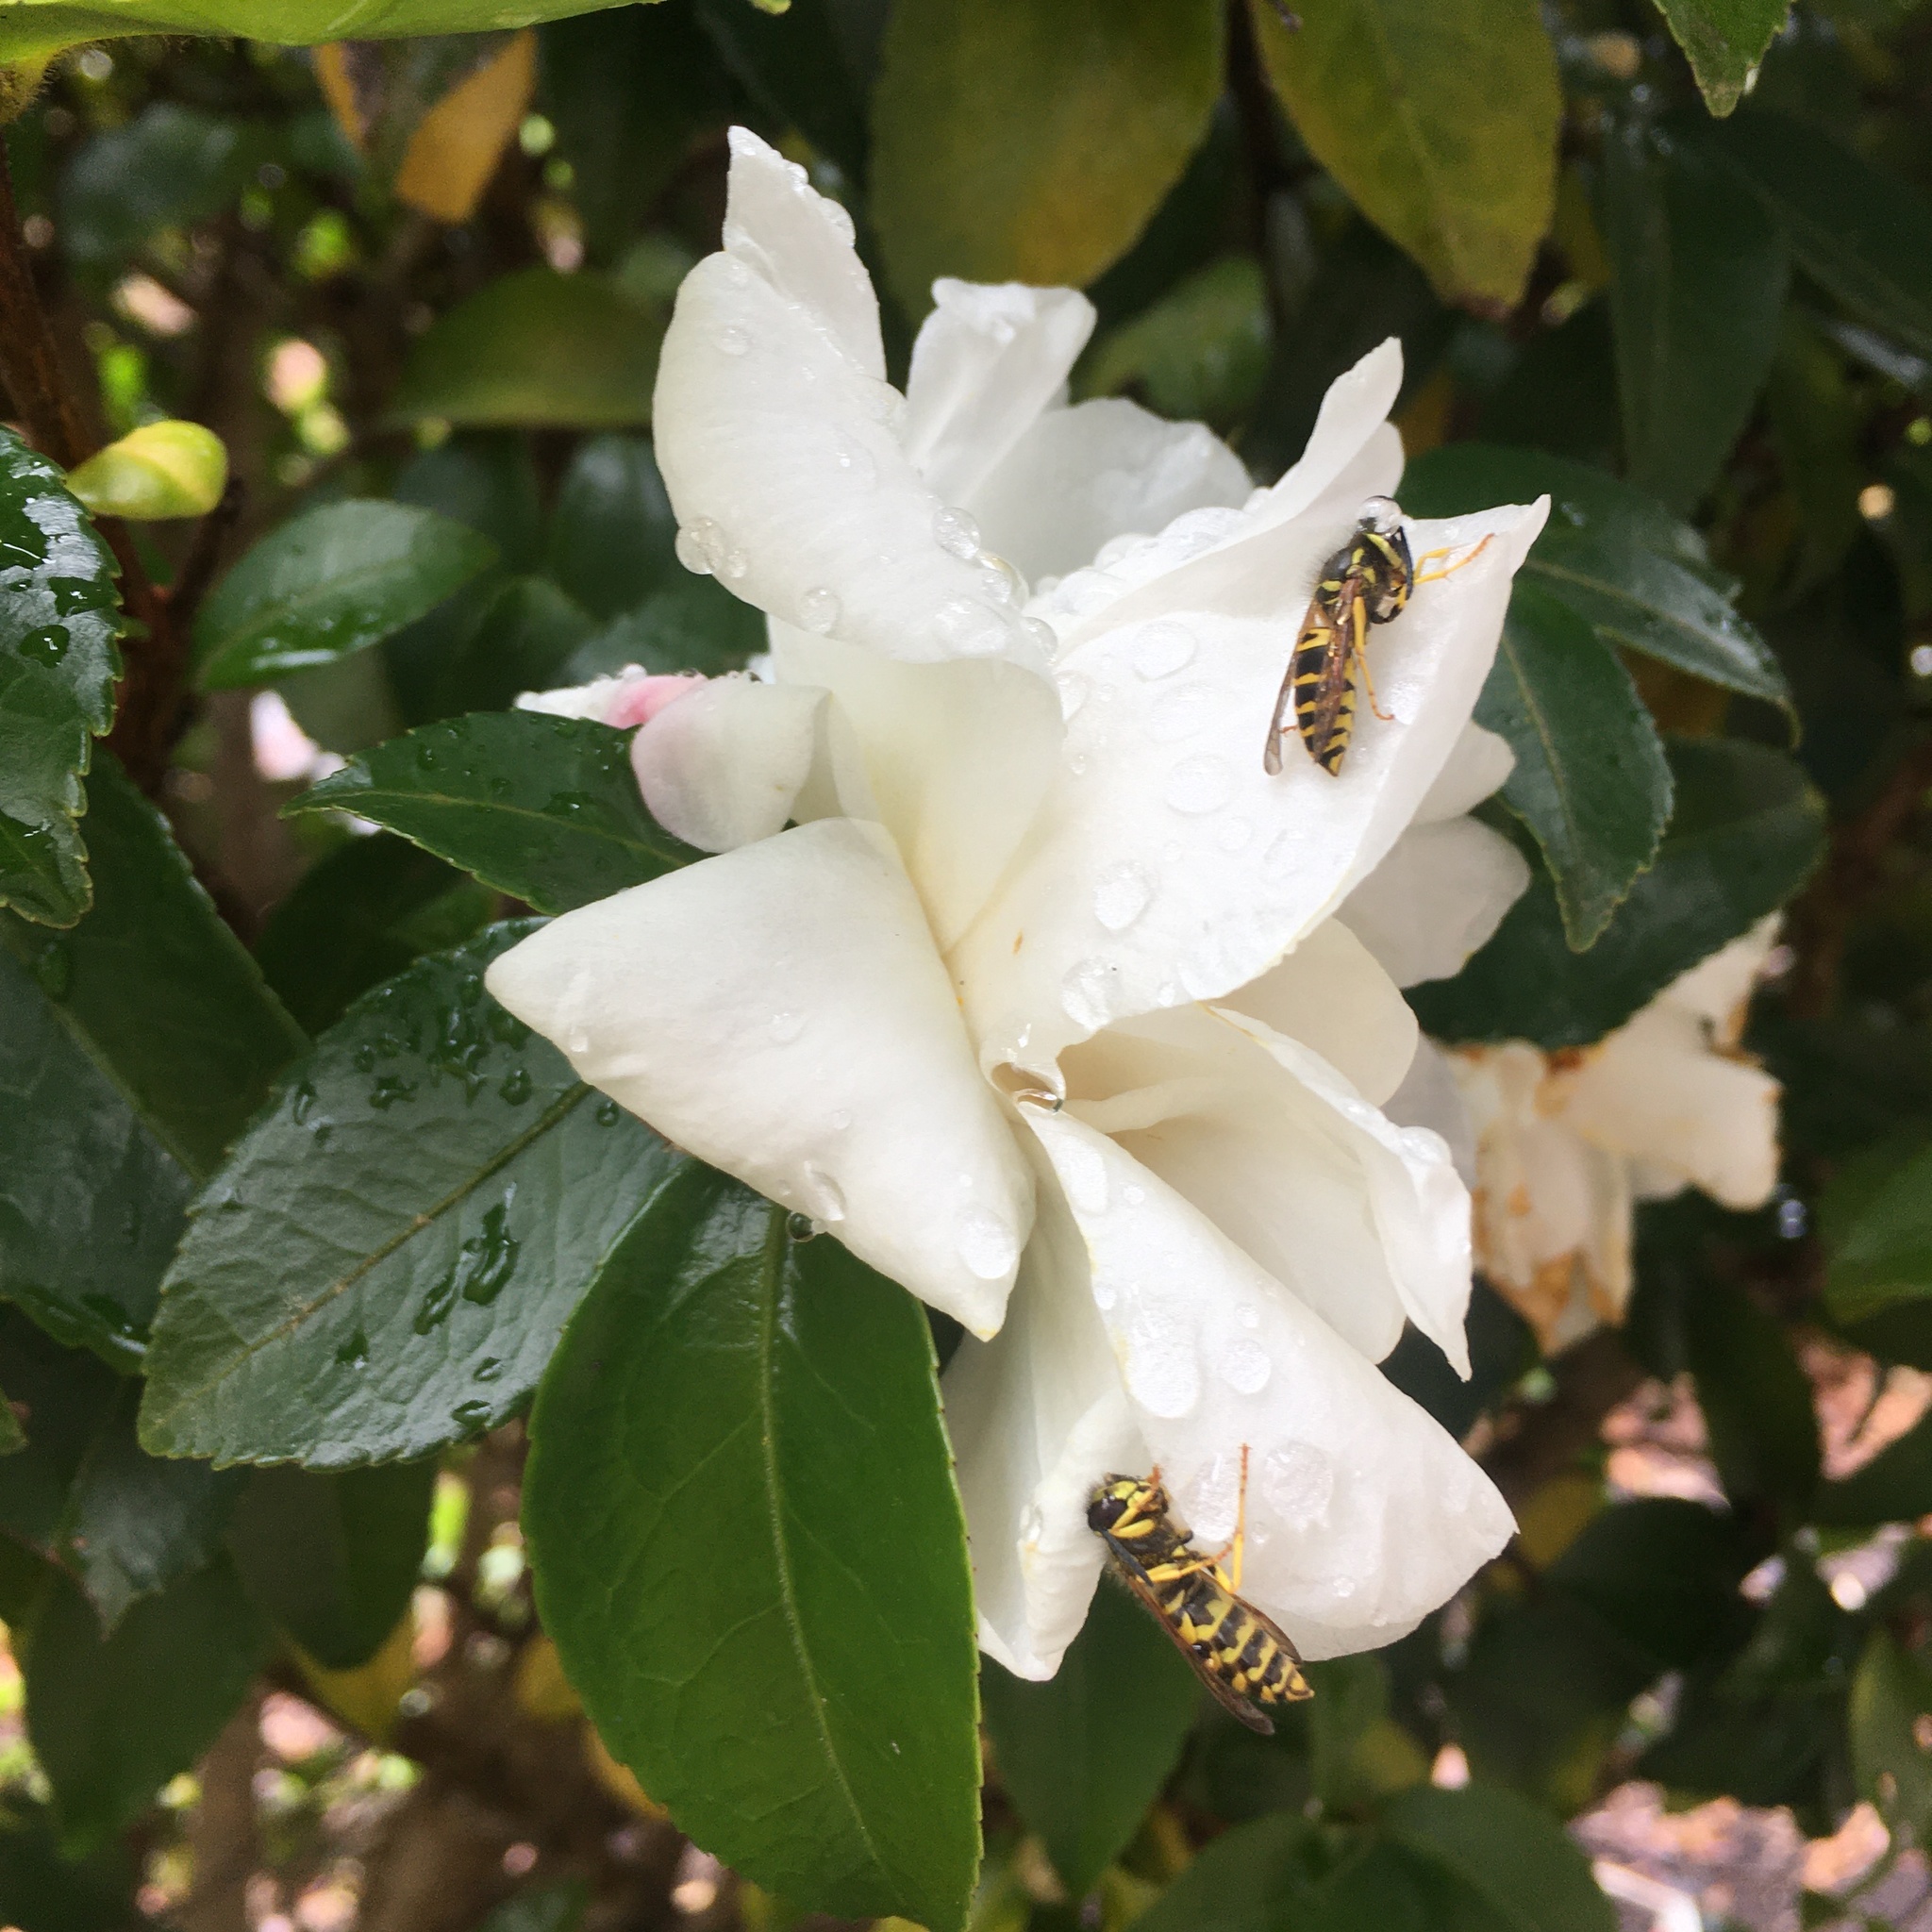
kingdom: Animalia
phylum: Arthropoda
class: Insecta
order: Hymenoptera
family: Vespidae
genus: Vespula
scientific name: Vespula maculifrons
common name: Eastern yellowjacket
